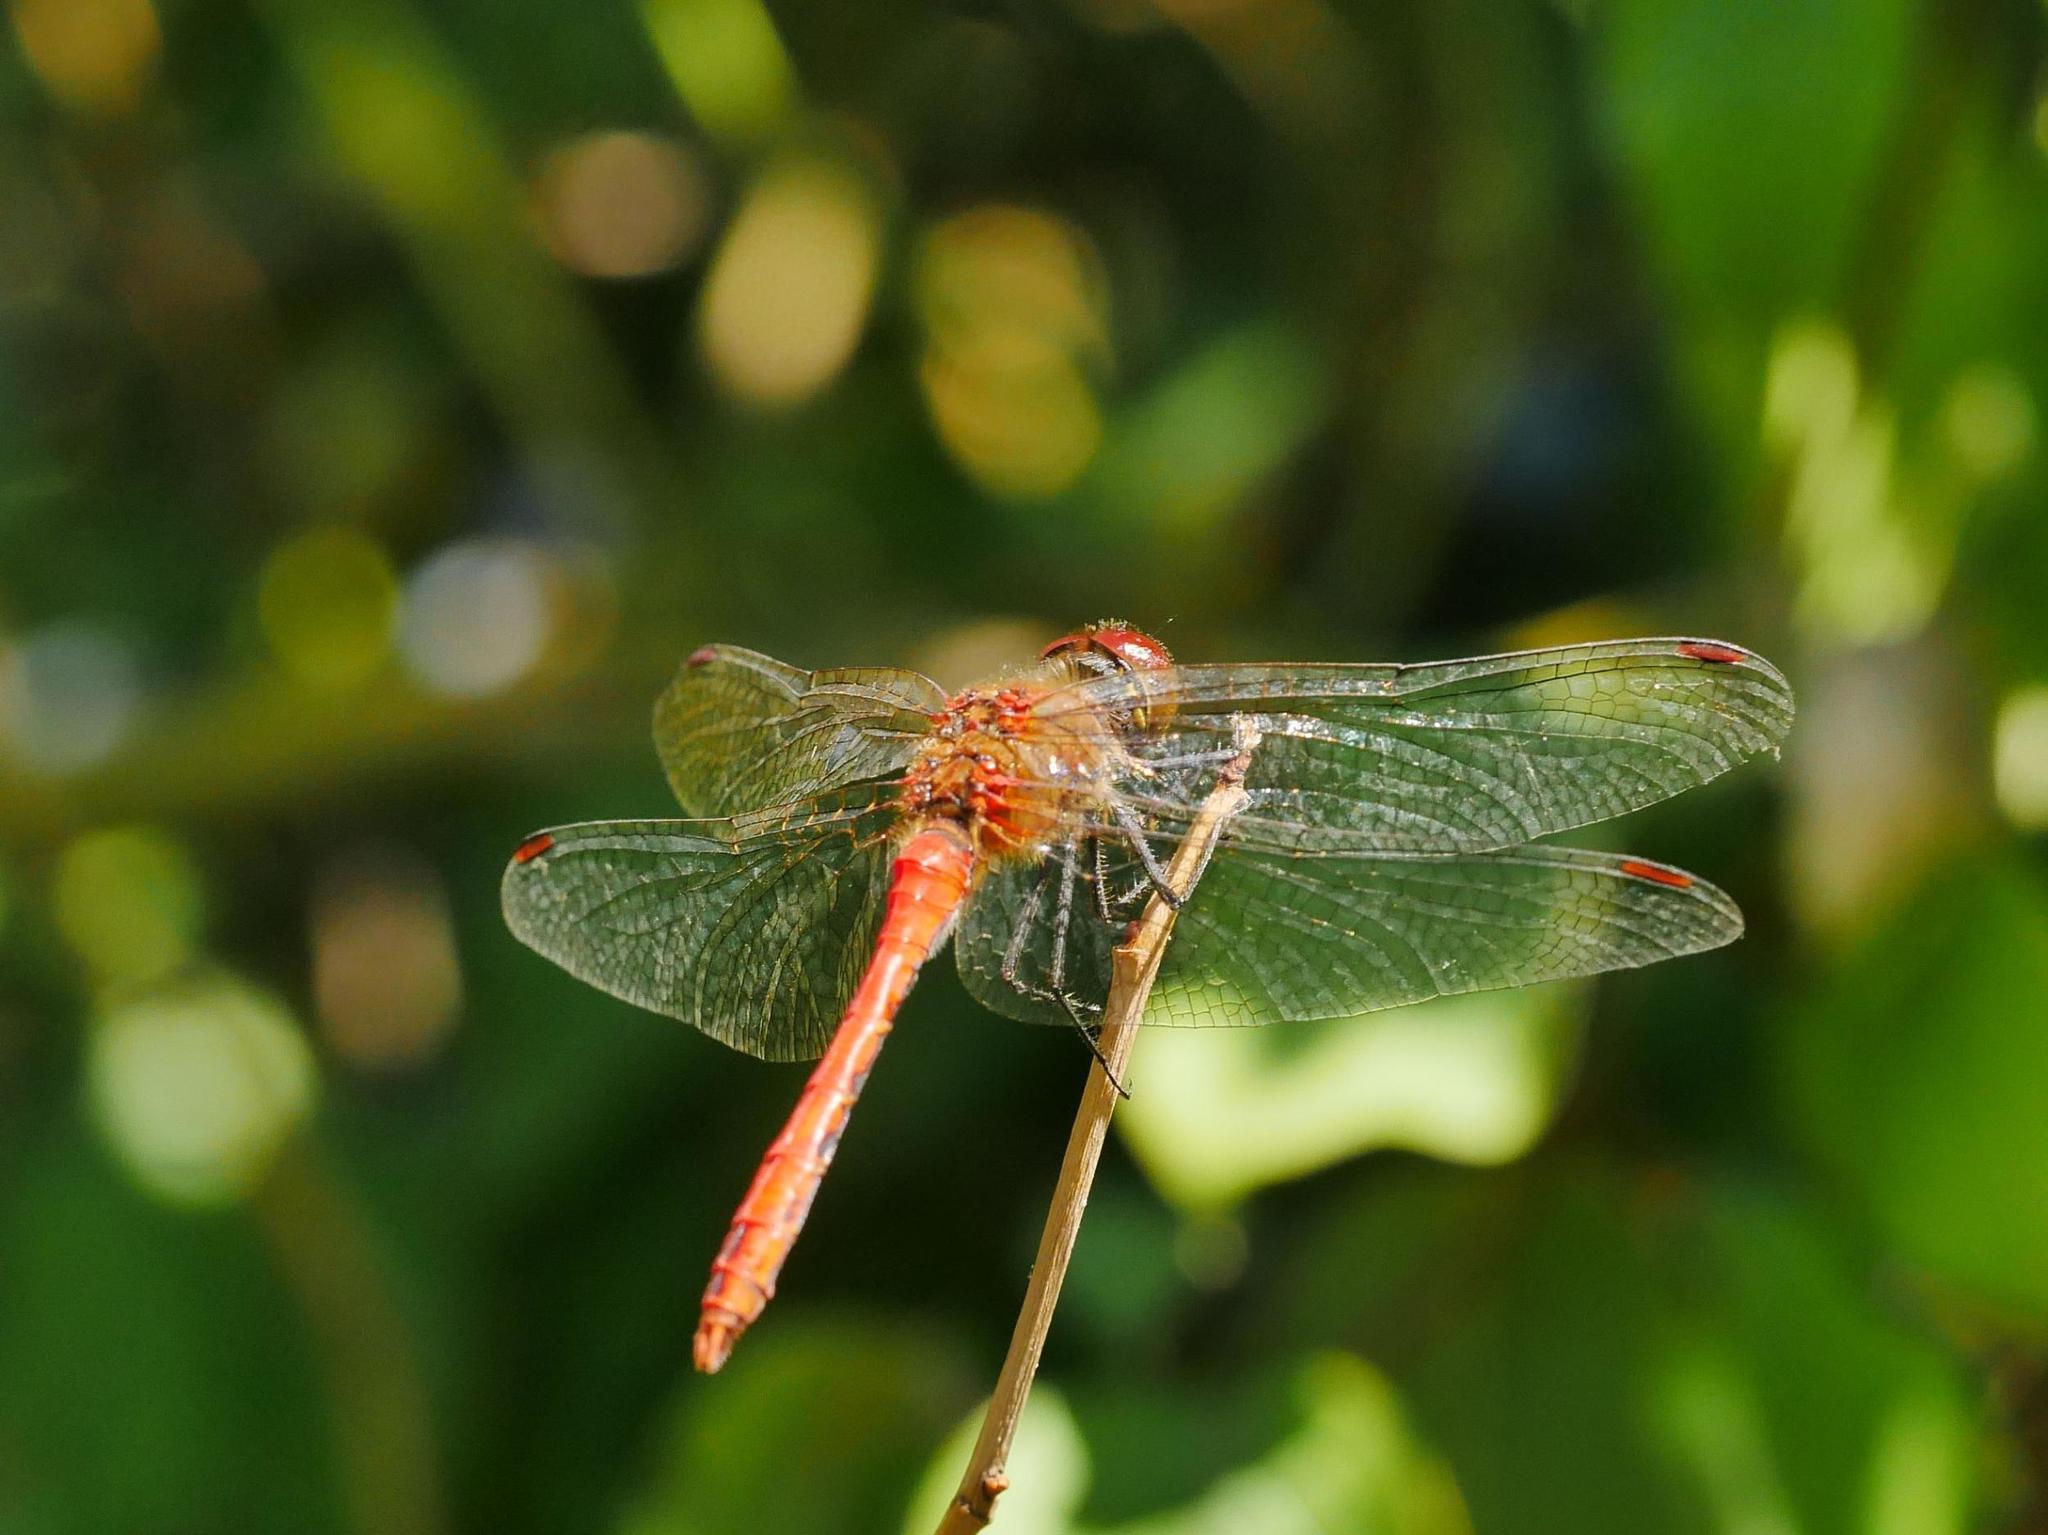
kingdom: Animalia
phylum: Arthropoda
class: Insecta
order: Odonata
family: Libellulidae
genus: Sympetrum
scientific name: Sympetrum sanguineum
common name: Ruddy darter
